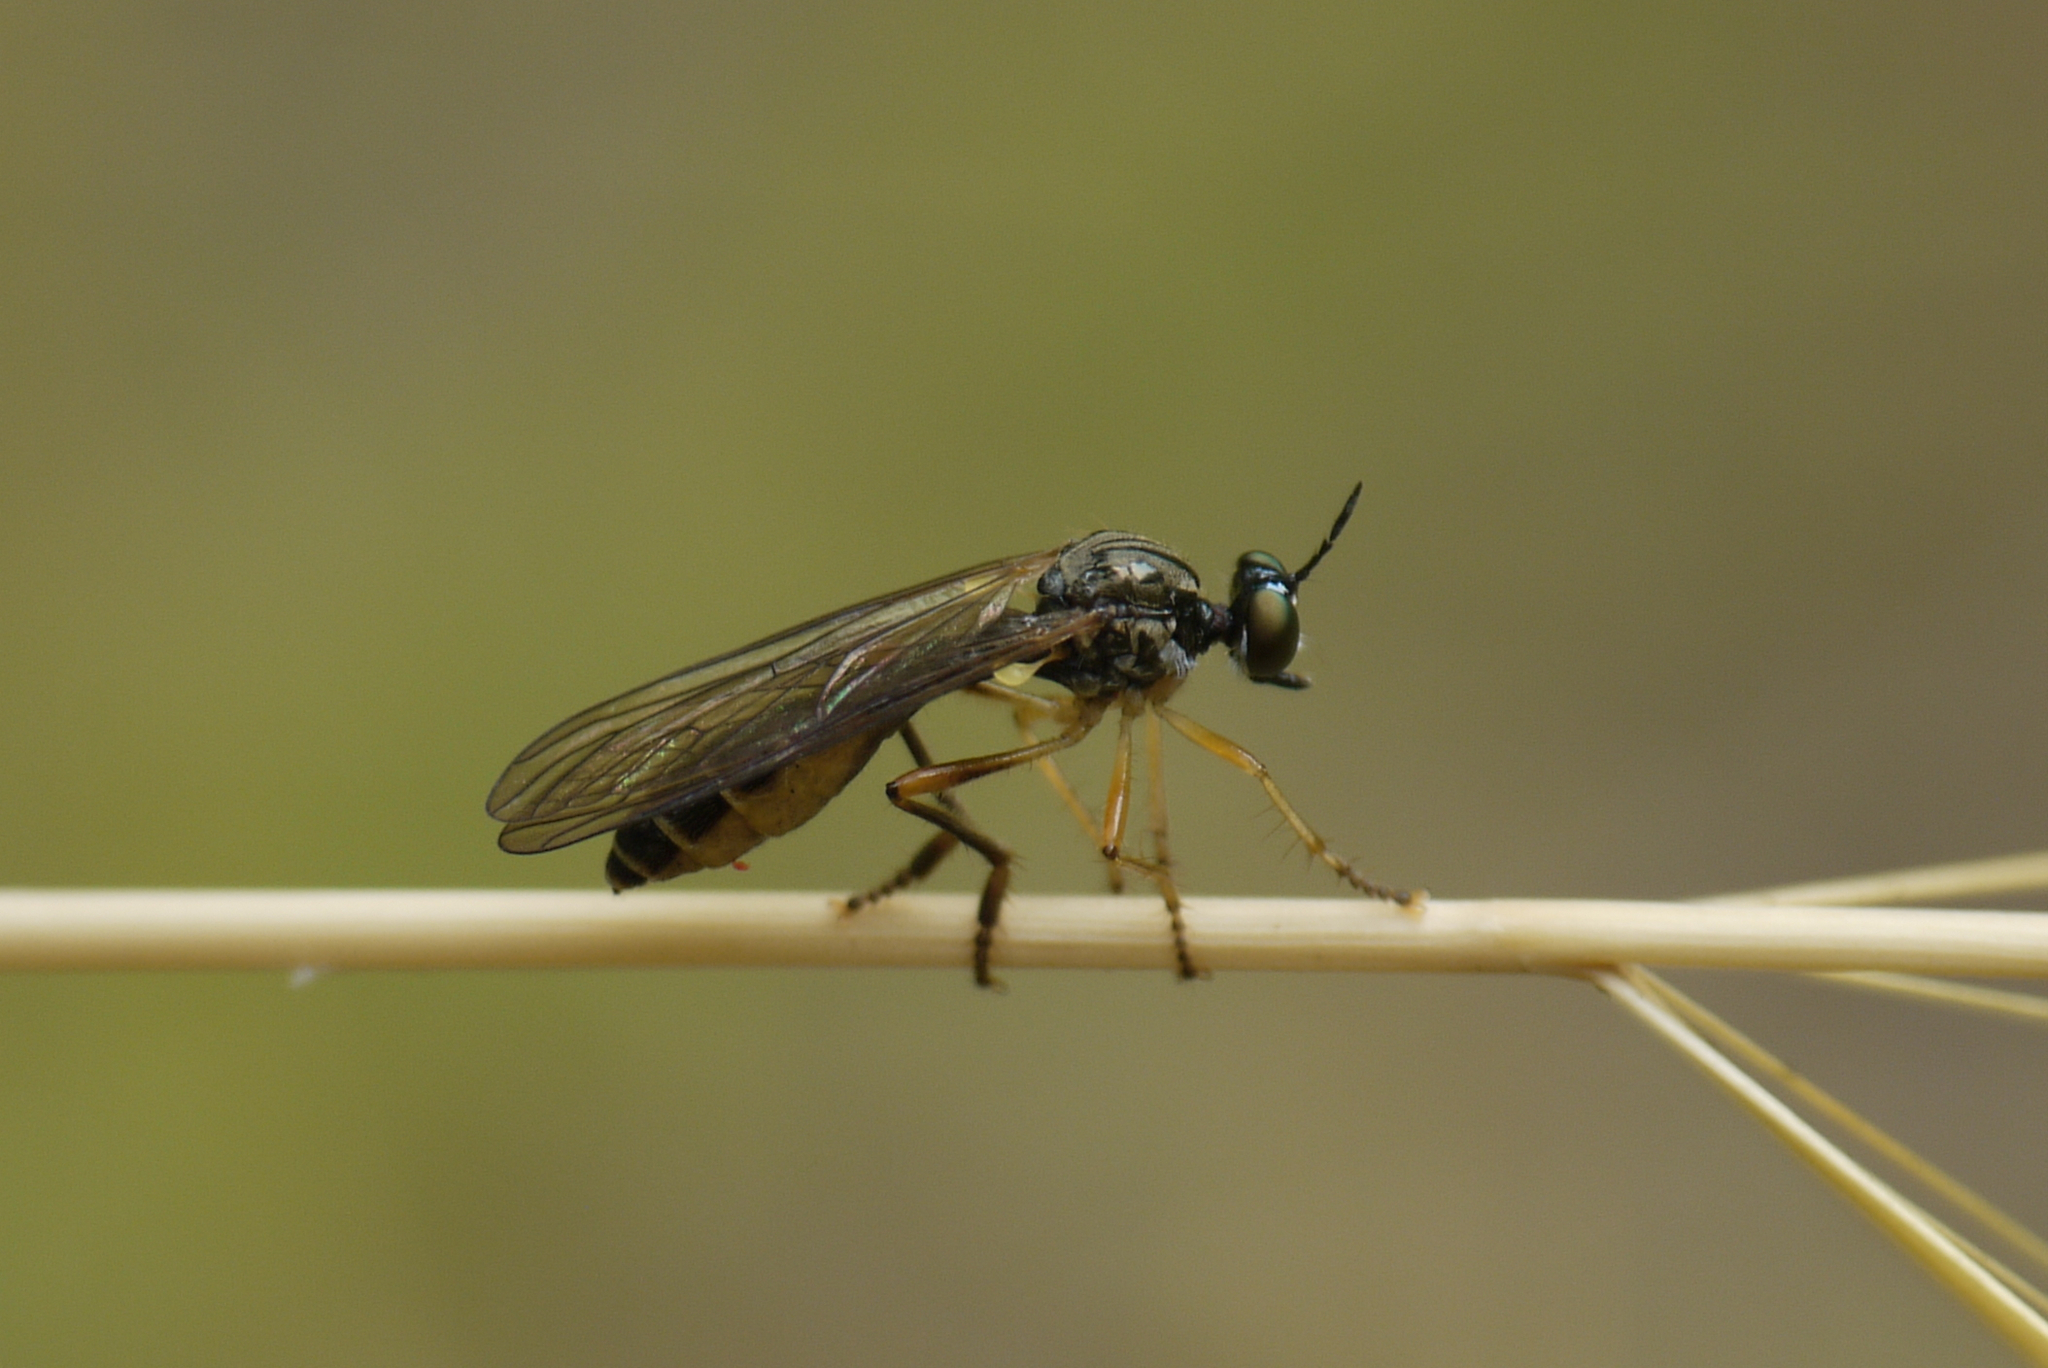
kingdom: Animalia
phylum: Arthropoda
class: Insecta
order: Diptera
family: Asilidae
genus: Dioctria
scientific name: Dioctria linearis
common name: Small yellow-legged robberfly
